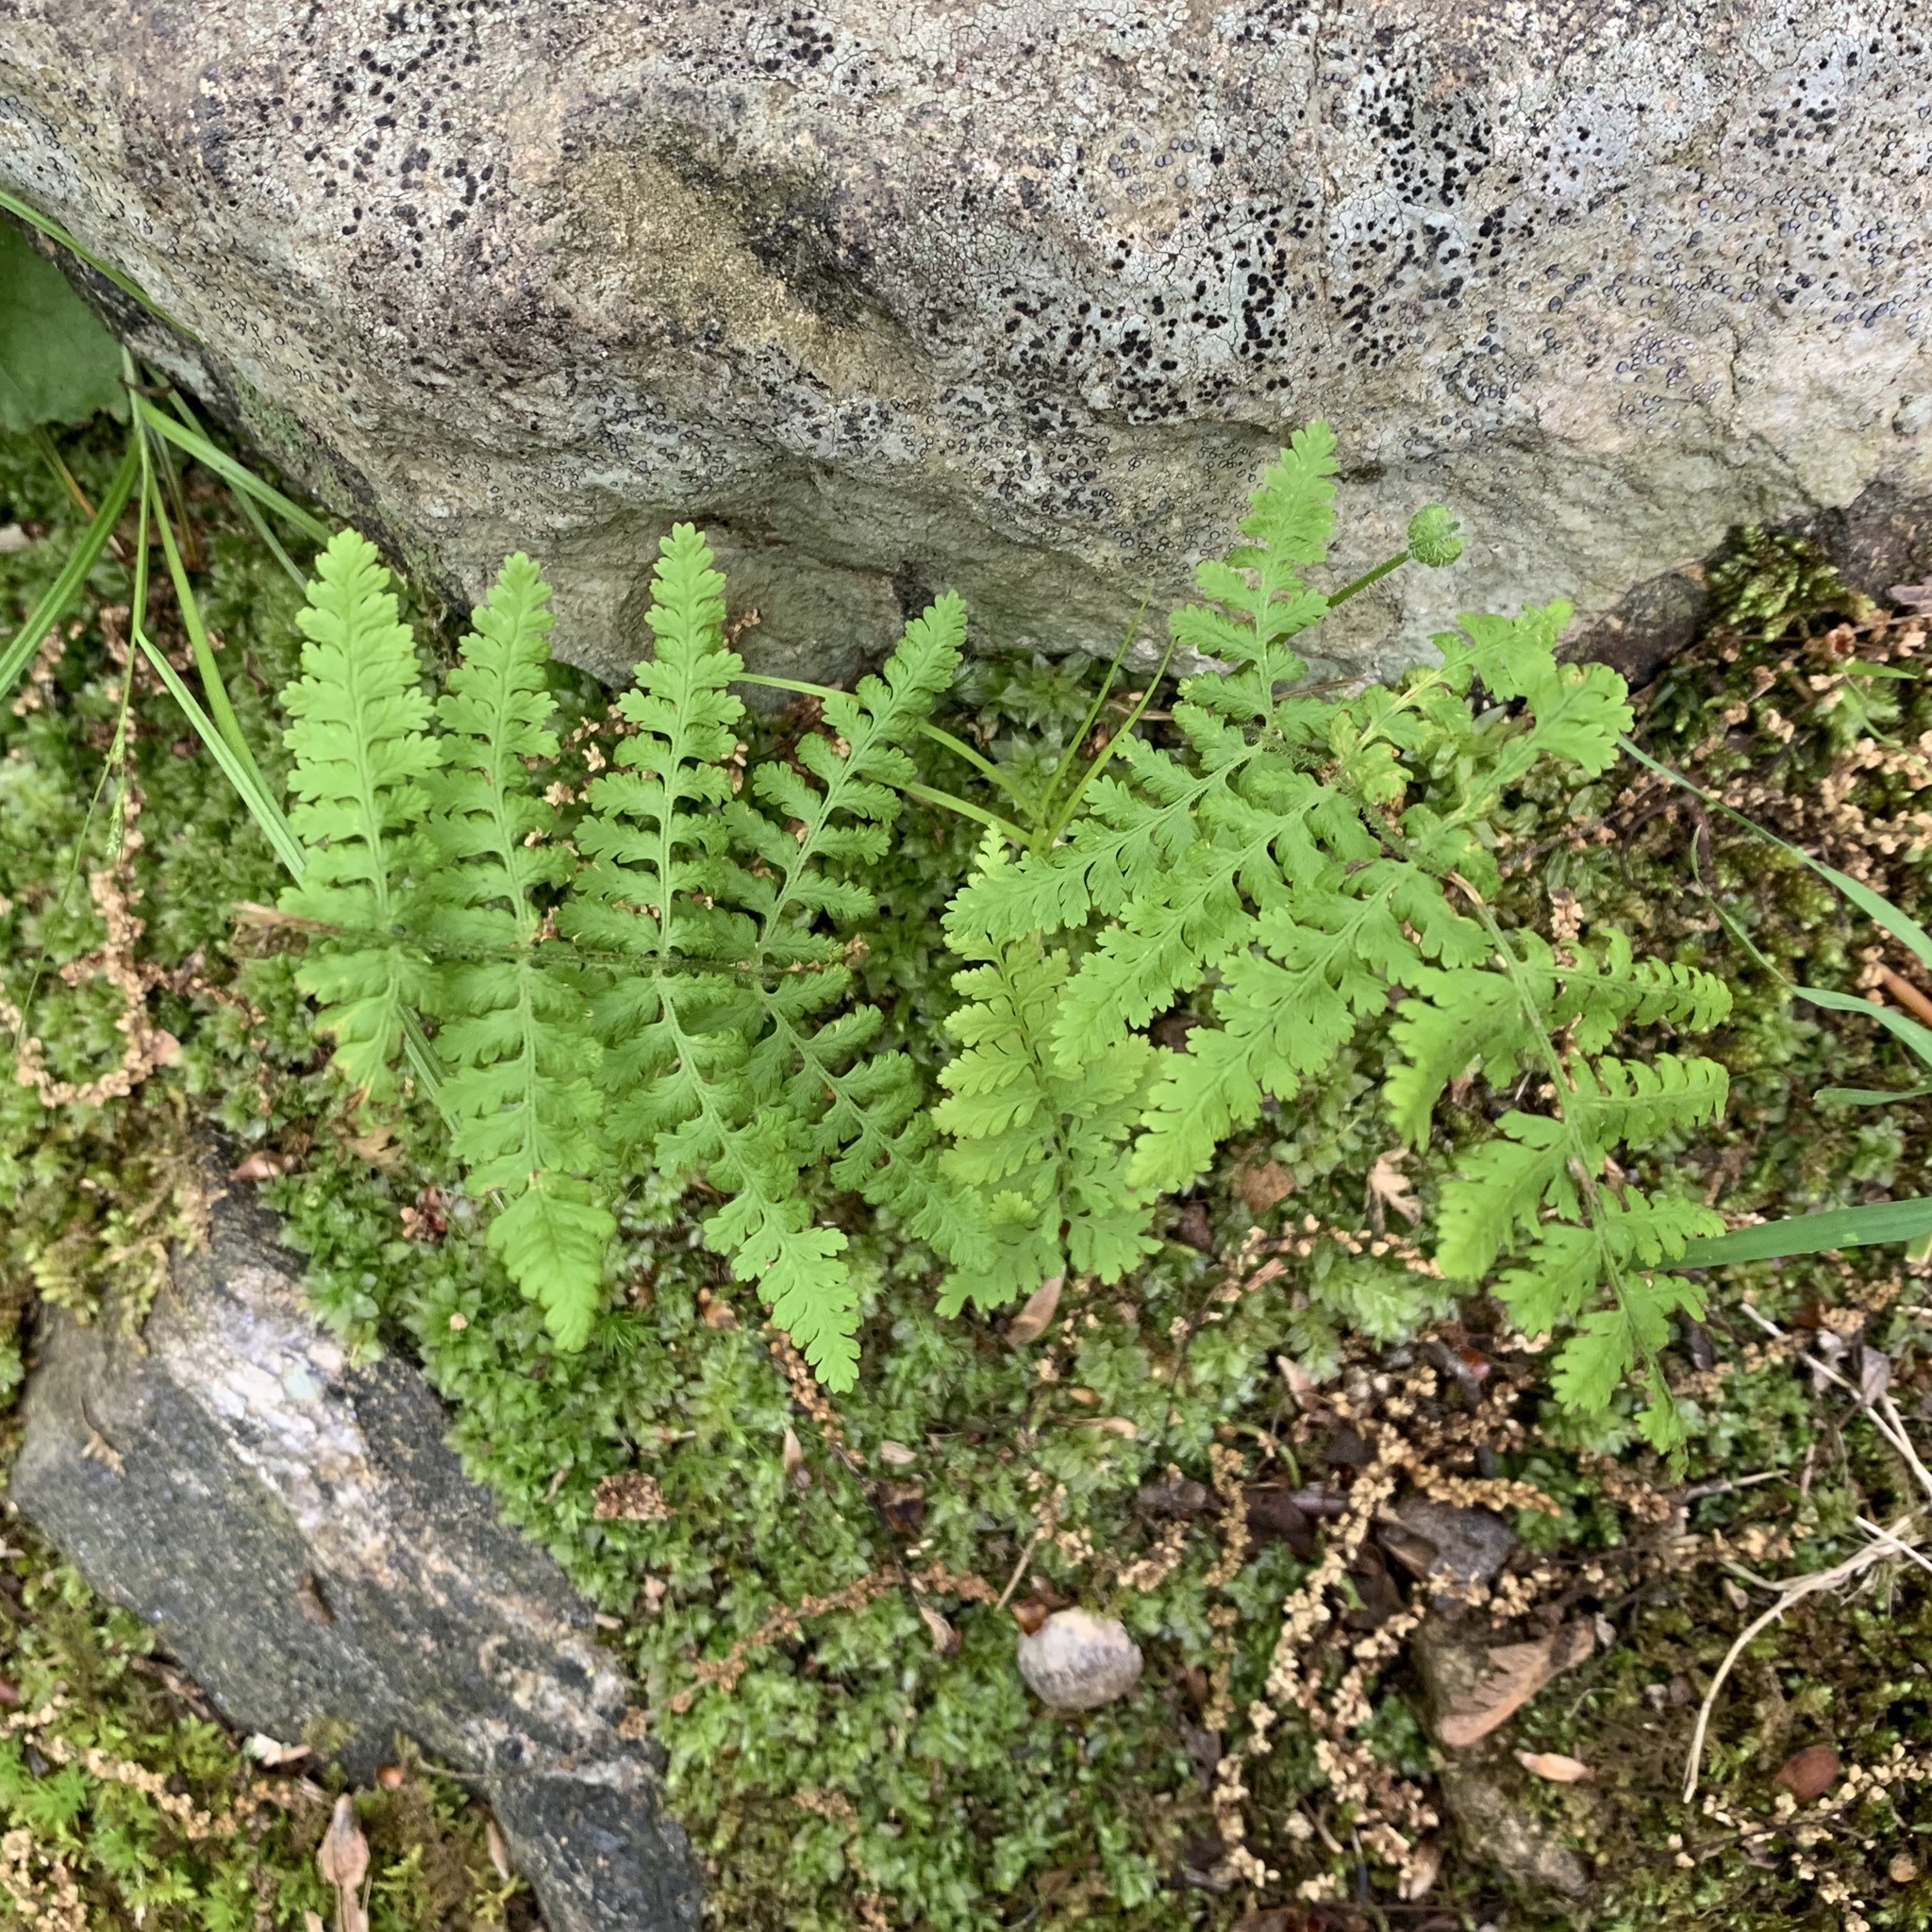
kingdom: Plantae
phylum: Tracheophyta
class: Polypodiopsida
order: Polypodiales
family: Dennstaedtiaceae
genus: Sitobolium
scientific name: Sitobolium punctilobum
